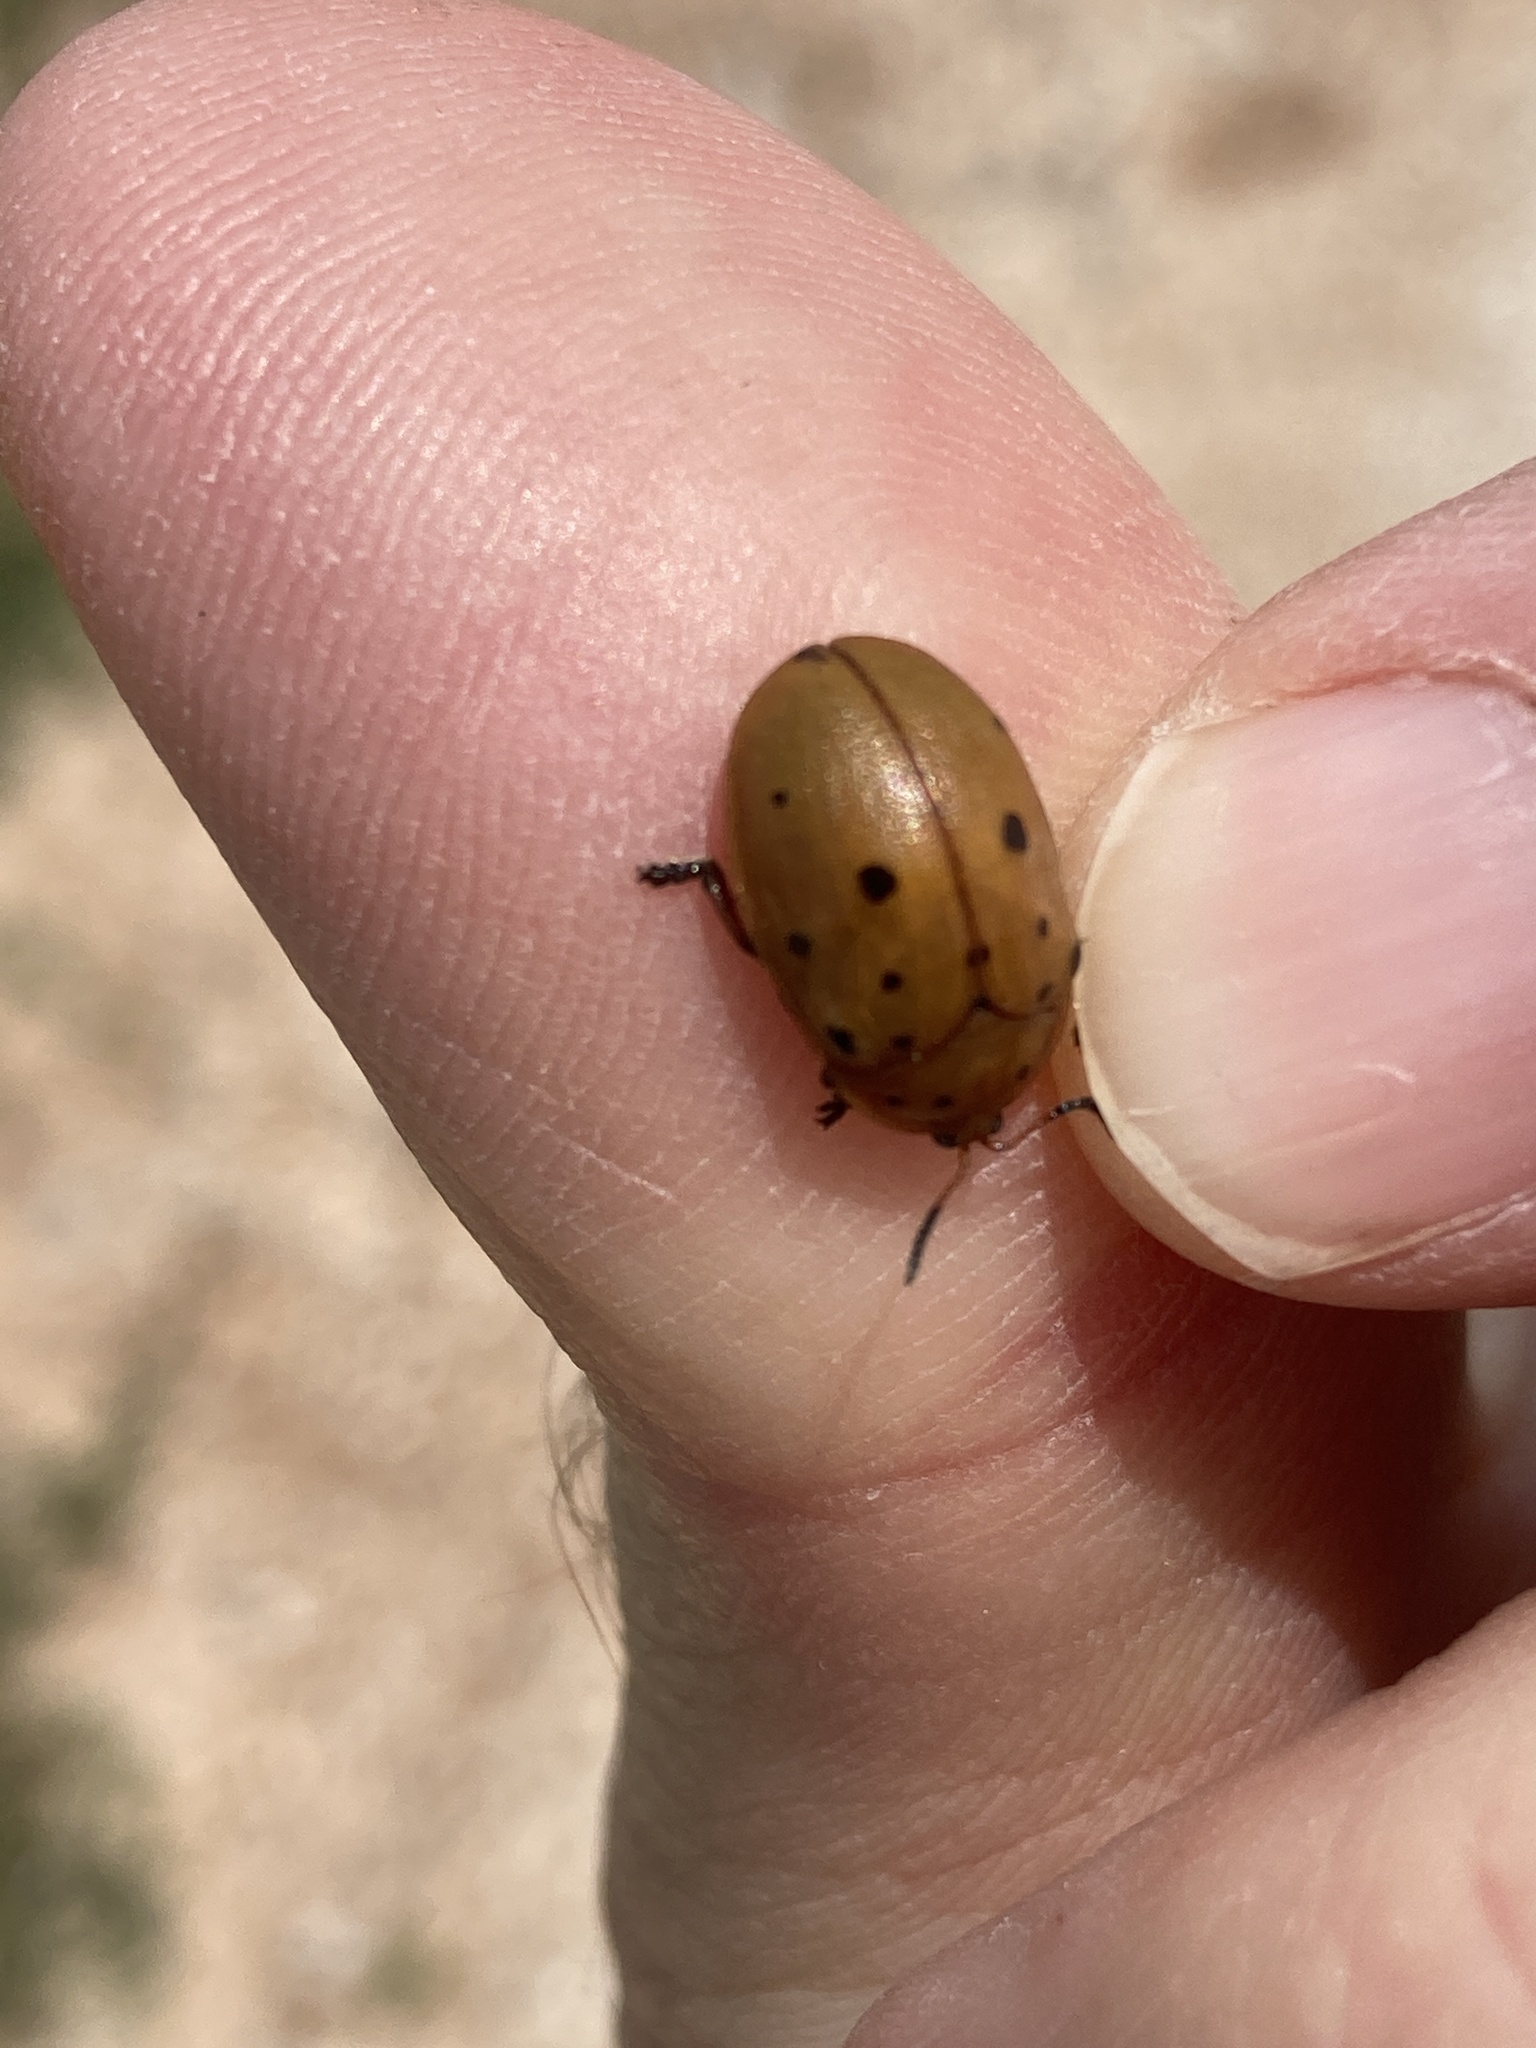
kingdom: Animalia
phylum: Arthropoda
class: Insecta
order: Coleoptera
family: Chrysomelidae
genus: Chelymorpha
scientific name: Chelymorpha cassidea
